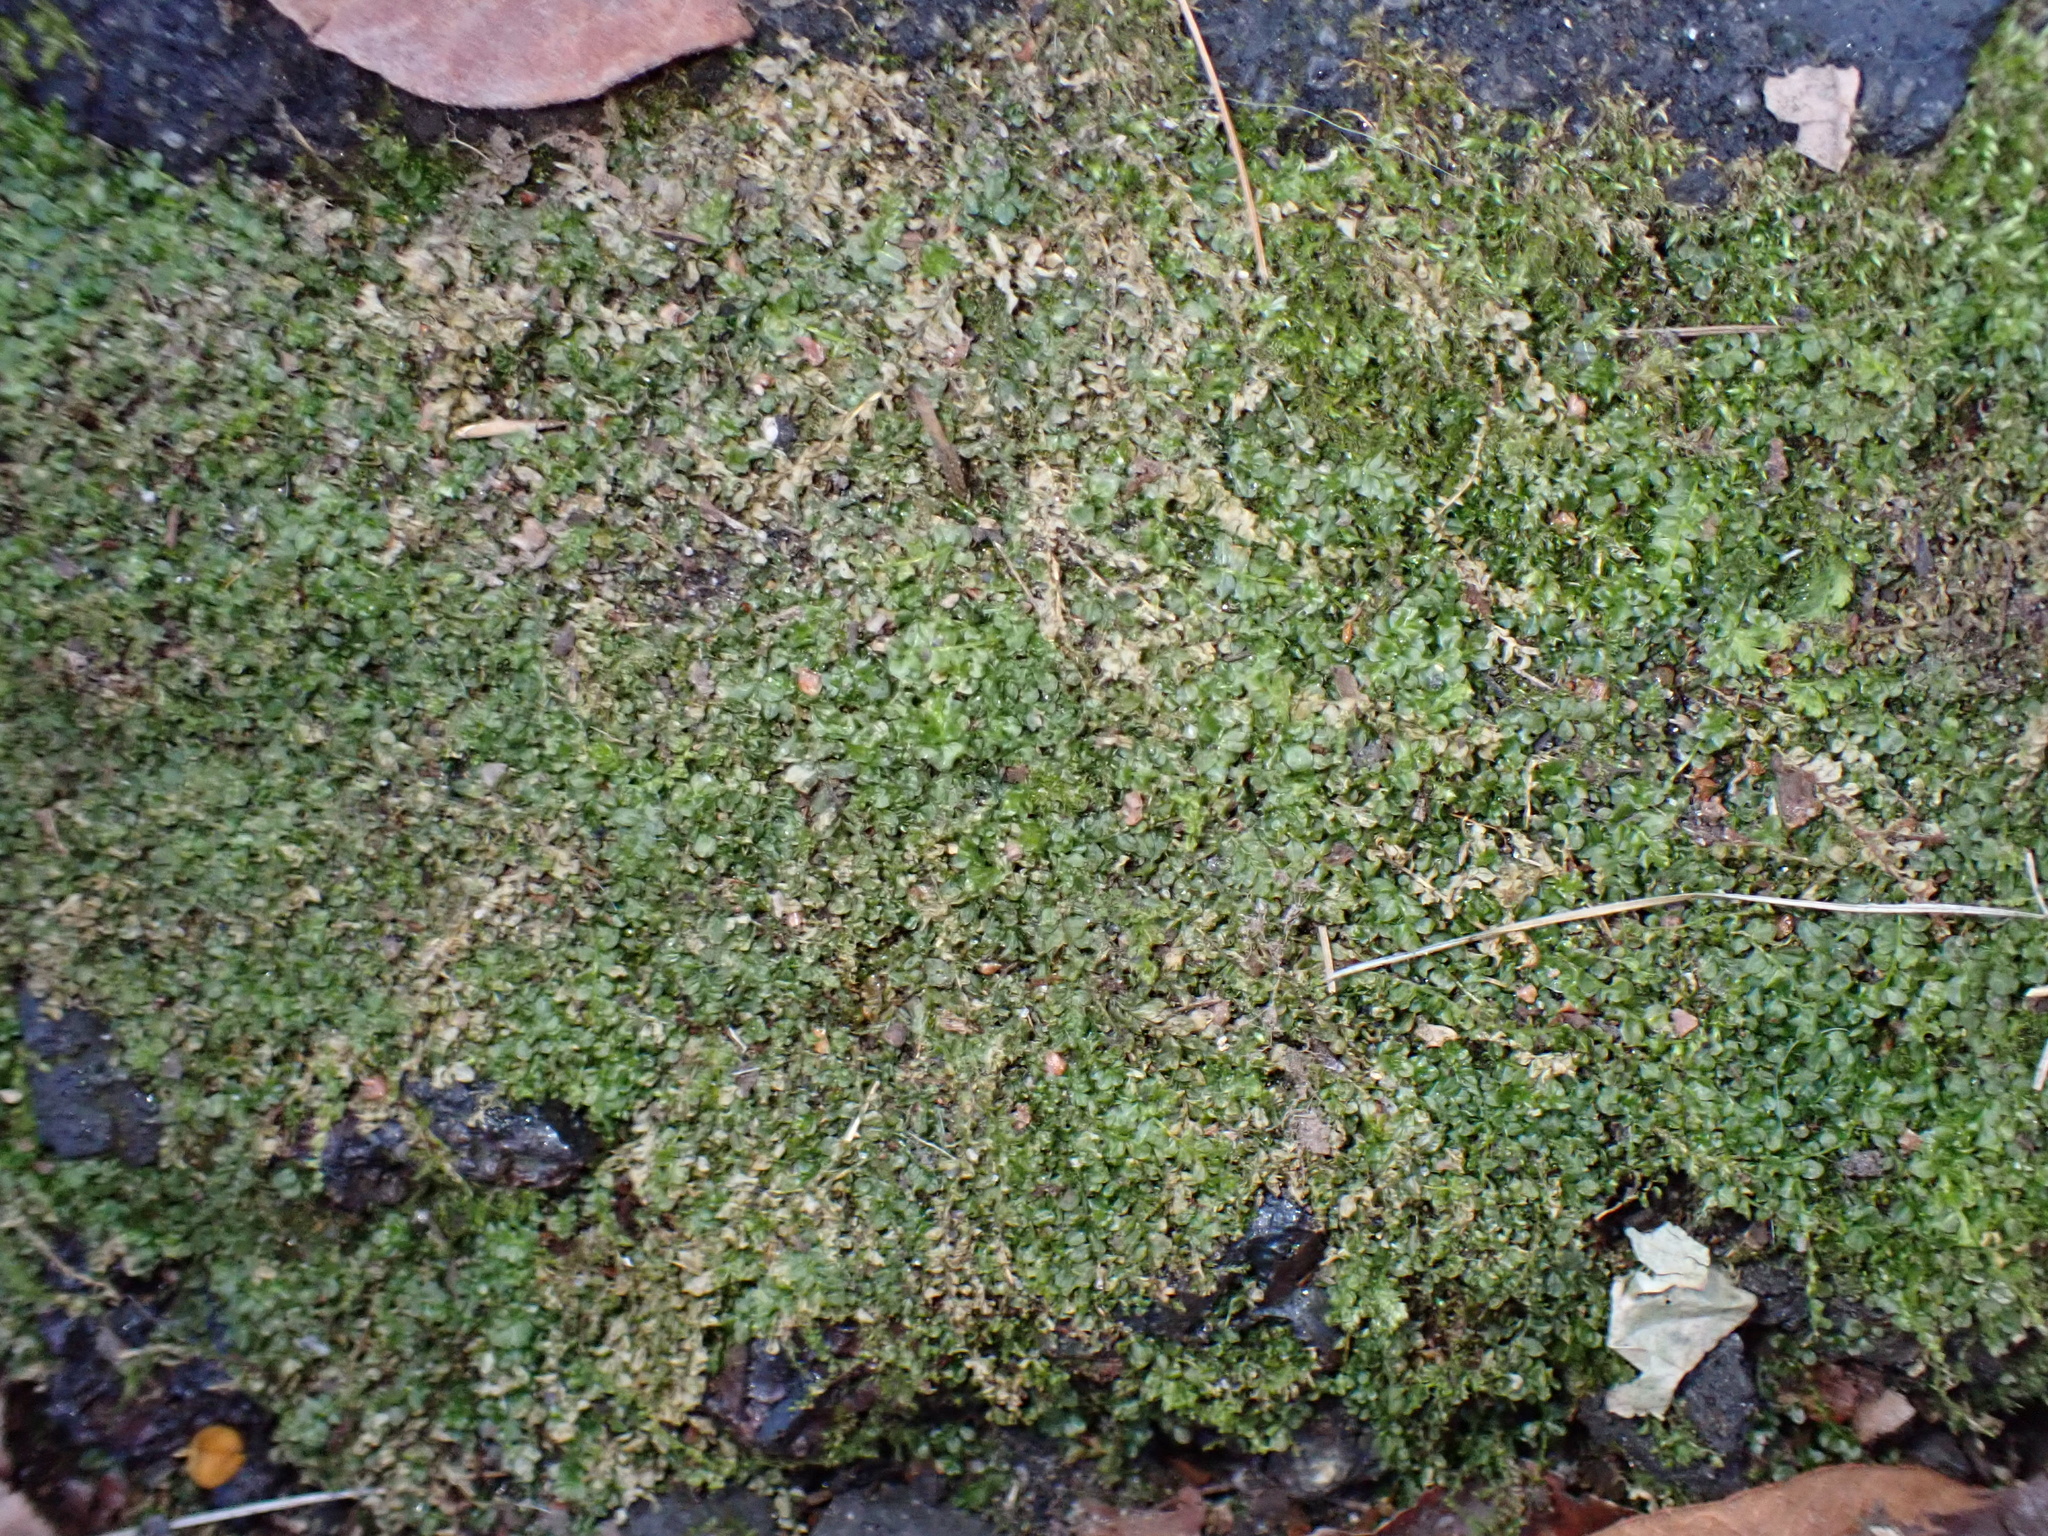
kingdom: Plantae
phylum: Bryophyta
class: Bryopsida
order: Bryales
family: Mniaceae
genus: Plagiomnium
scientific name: Plagiomnium cuspidatum
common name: Woodsy leafy moss
